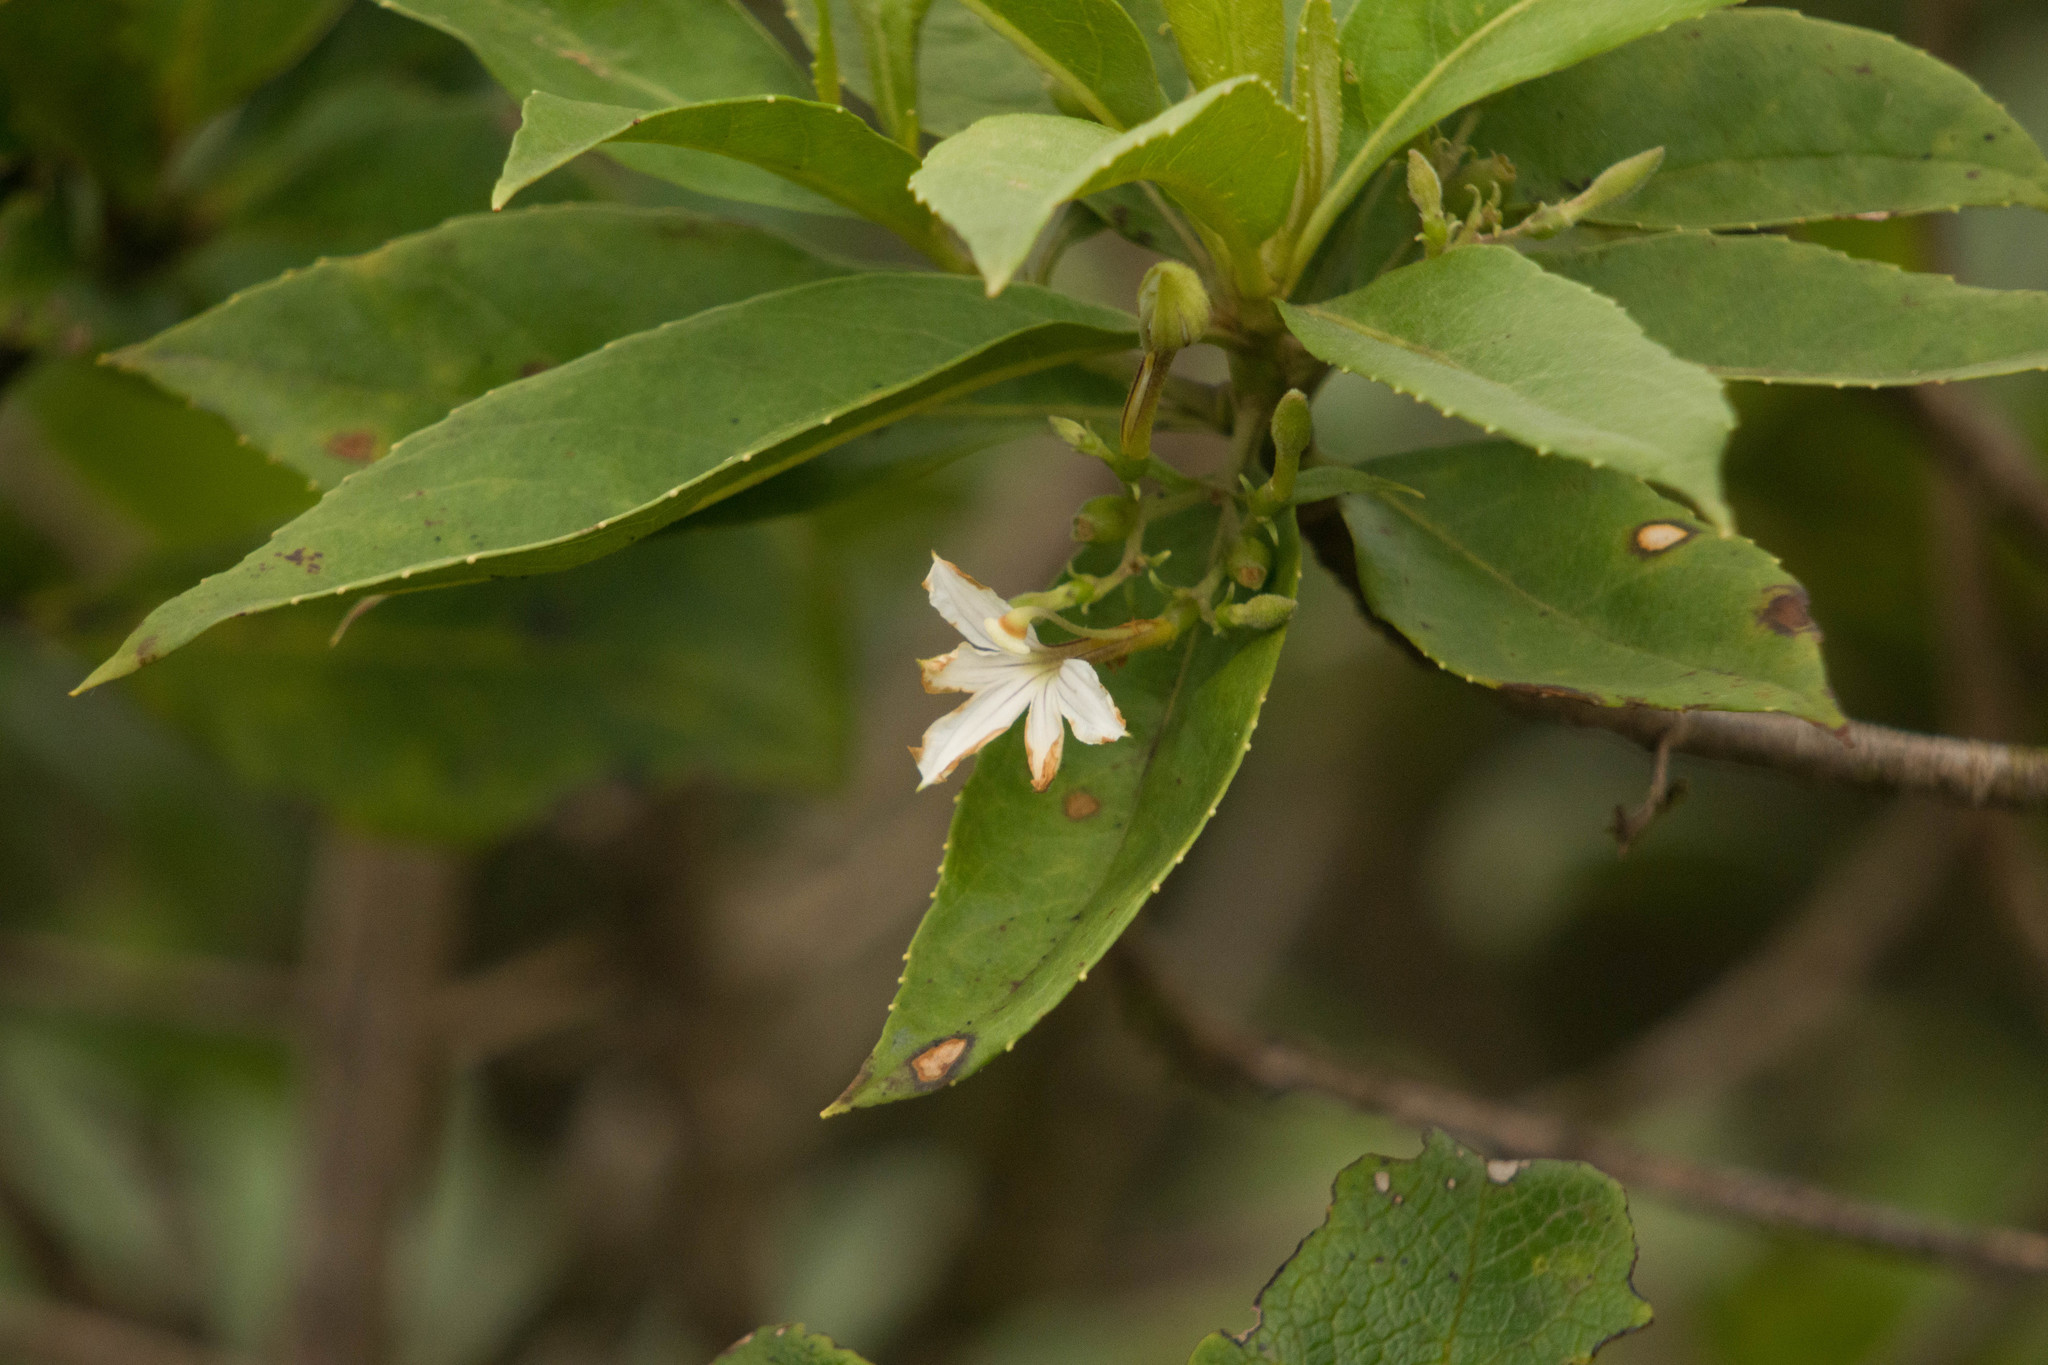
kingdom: Plantae
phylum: Tracheophyta
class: Magnoliopsida
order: Asterales
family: Goodeniaceae
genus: Scaevola
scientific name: Scaevola gaudichaudiana
